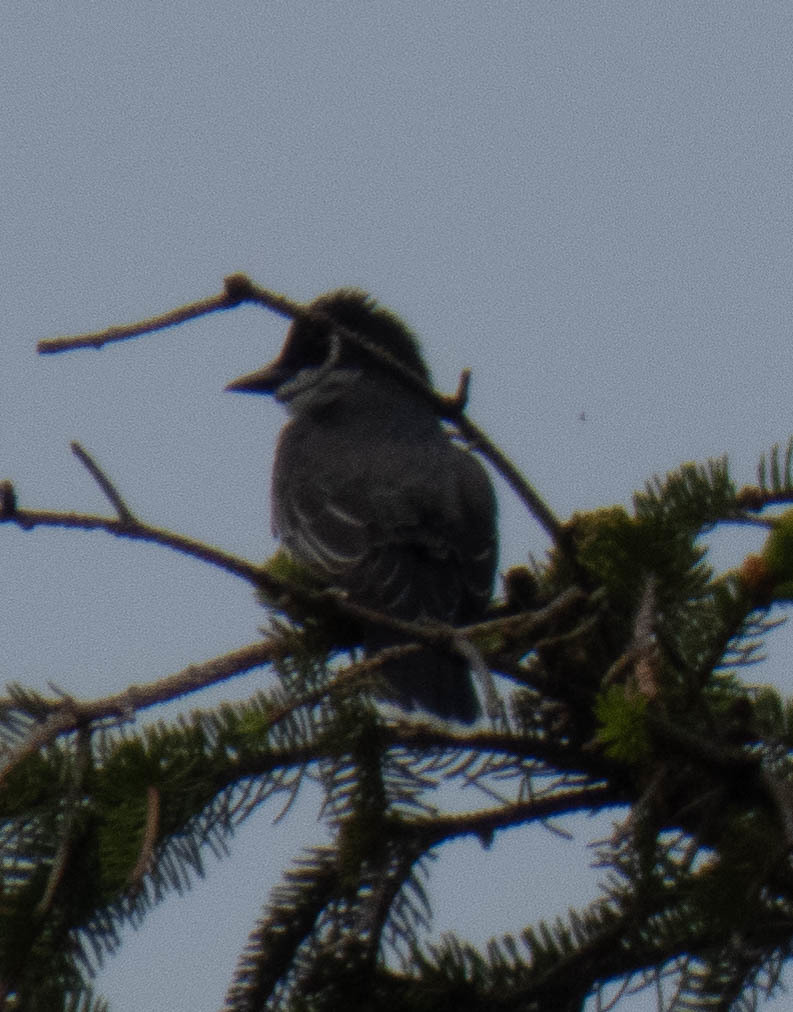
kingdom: Animalia
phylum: Chordata
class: Aves
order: Passeriformes
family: Tyrannidae
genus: Tyrannus
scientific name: Tyrannus tyrannus
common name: Eastern kingbird
